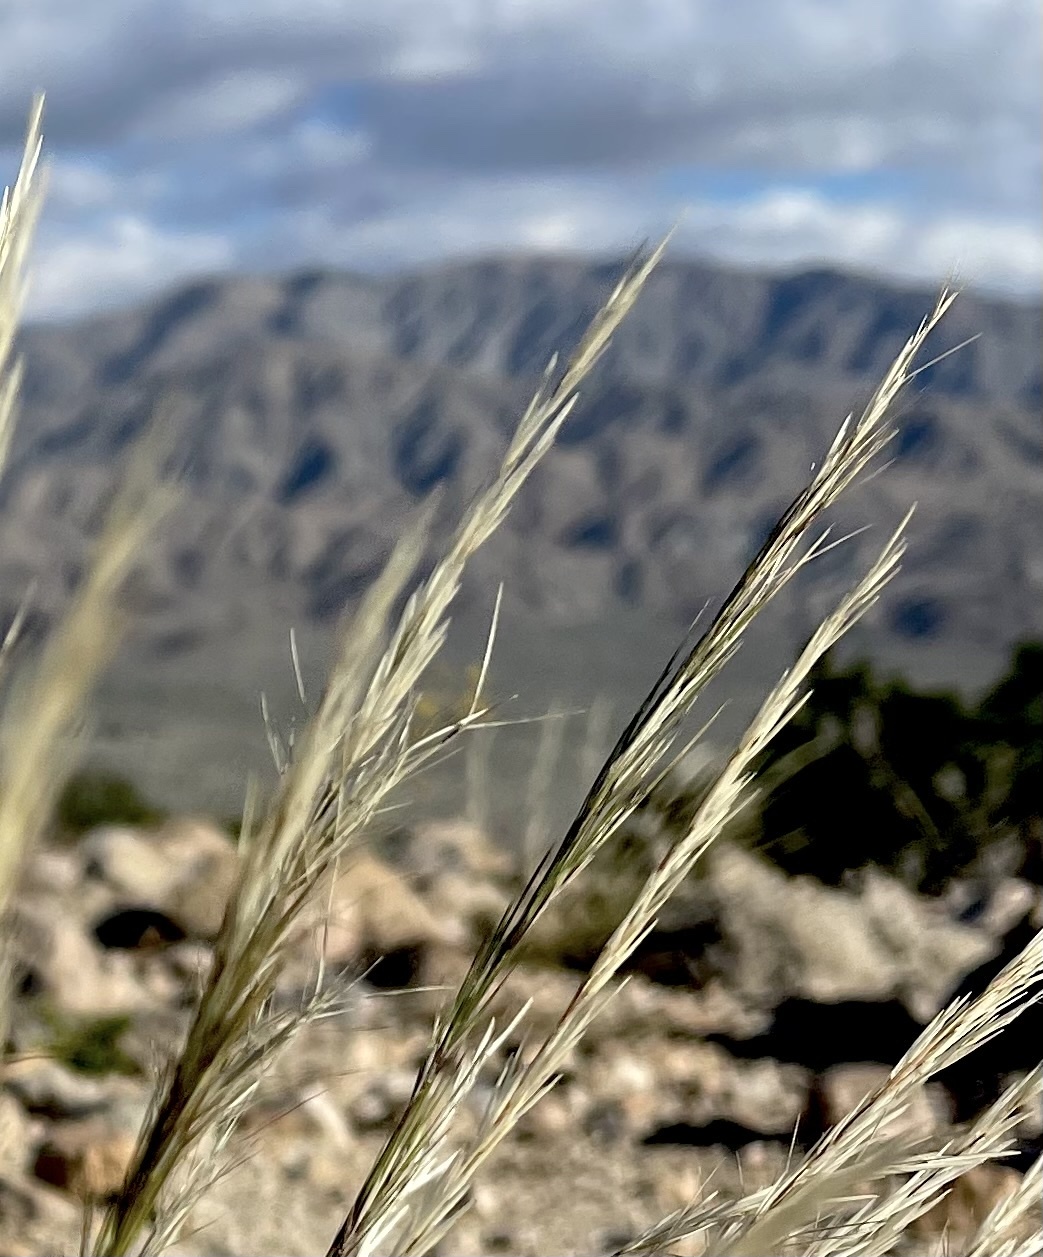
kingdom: Plantae
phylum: Tracheophyta
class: Liliopsida
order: Poales
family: Poaceae
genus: Aristida
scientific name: Aristida adscensionis
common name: Sixweeks threeawn
